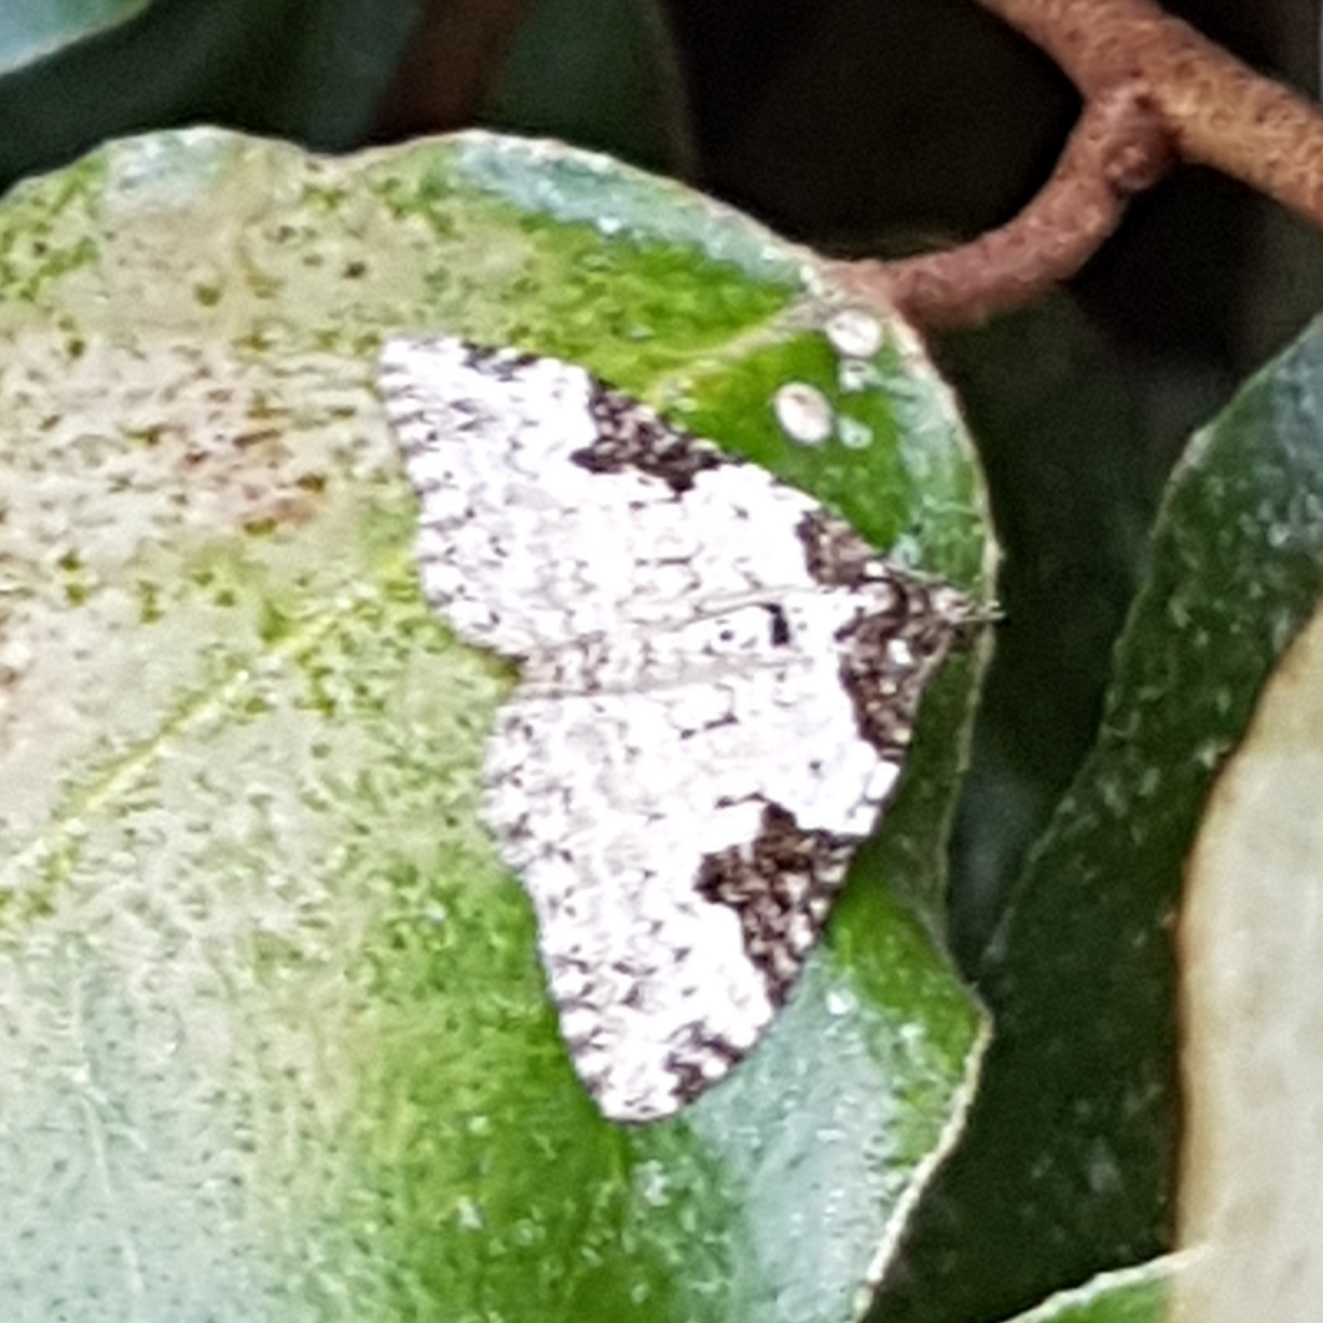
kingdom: Animalia
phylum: Arthropoda
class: Insecta
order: Lepidoptera
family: Geometridae
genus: Xanthorhoe
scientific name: Xanthorhoe fluctuata
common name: Garden carpet
